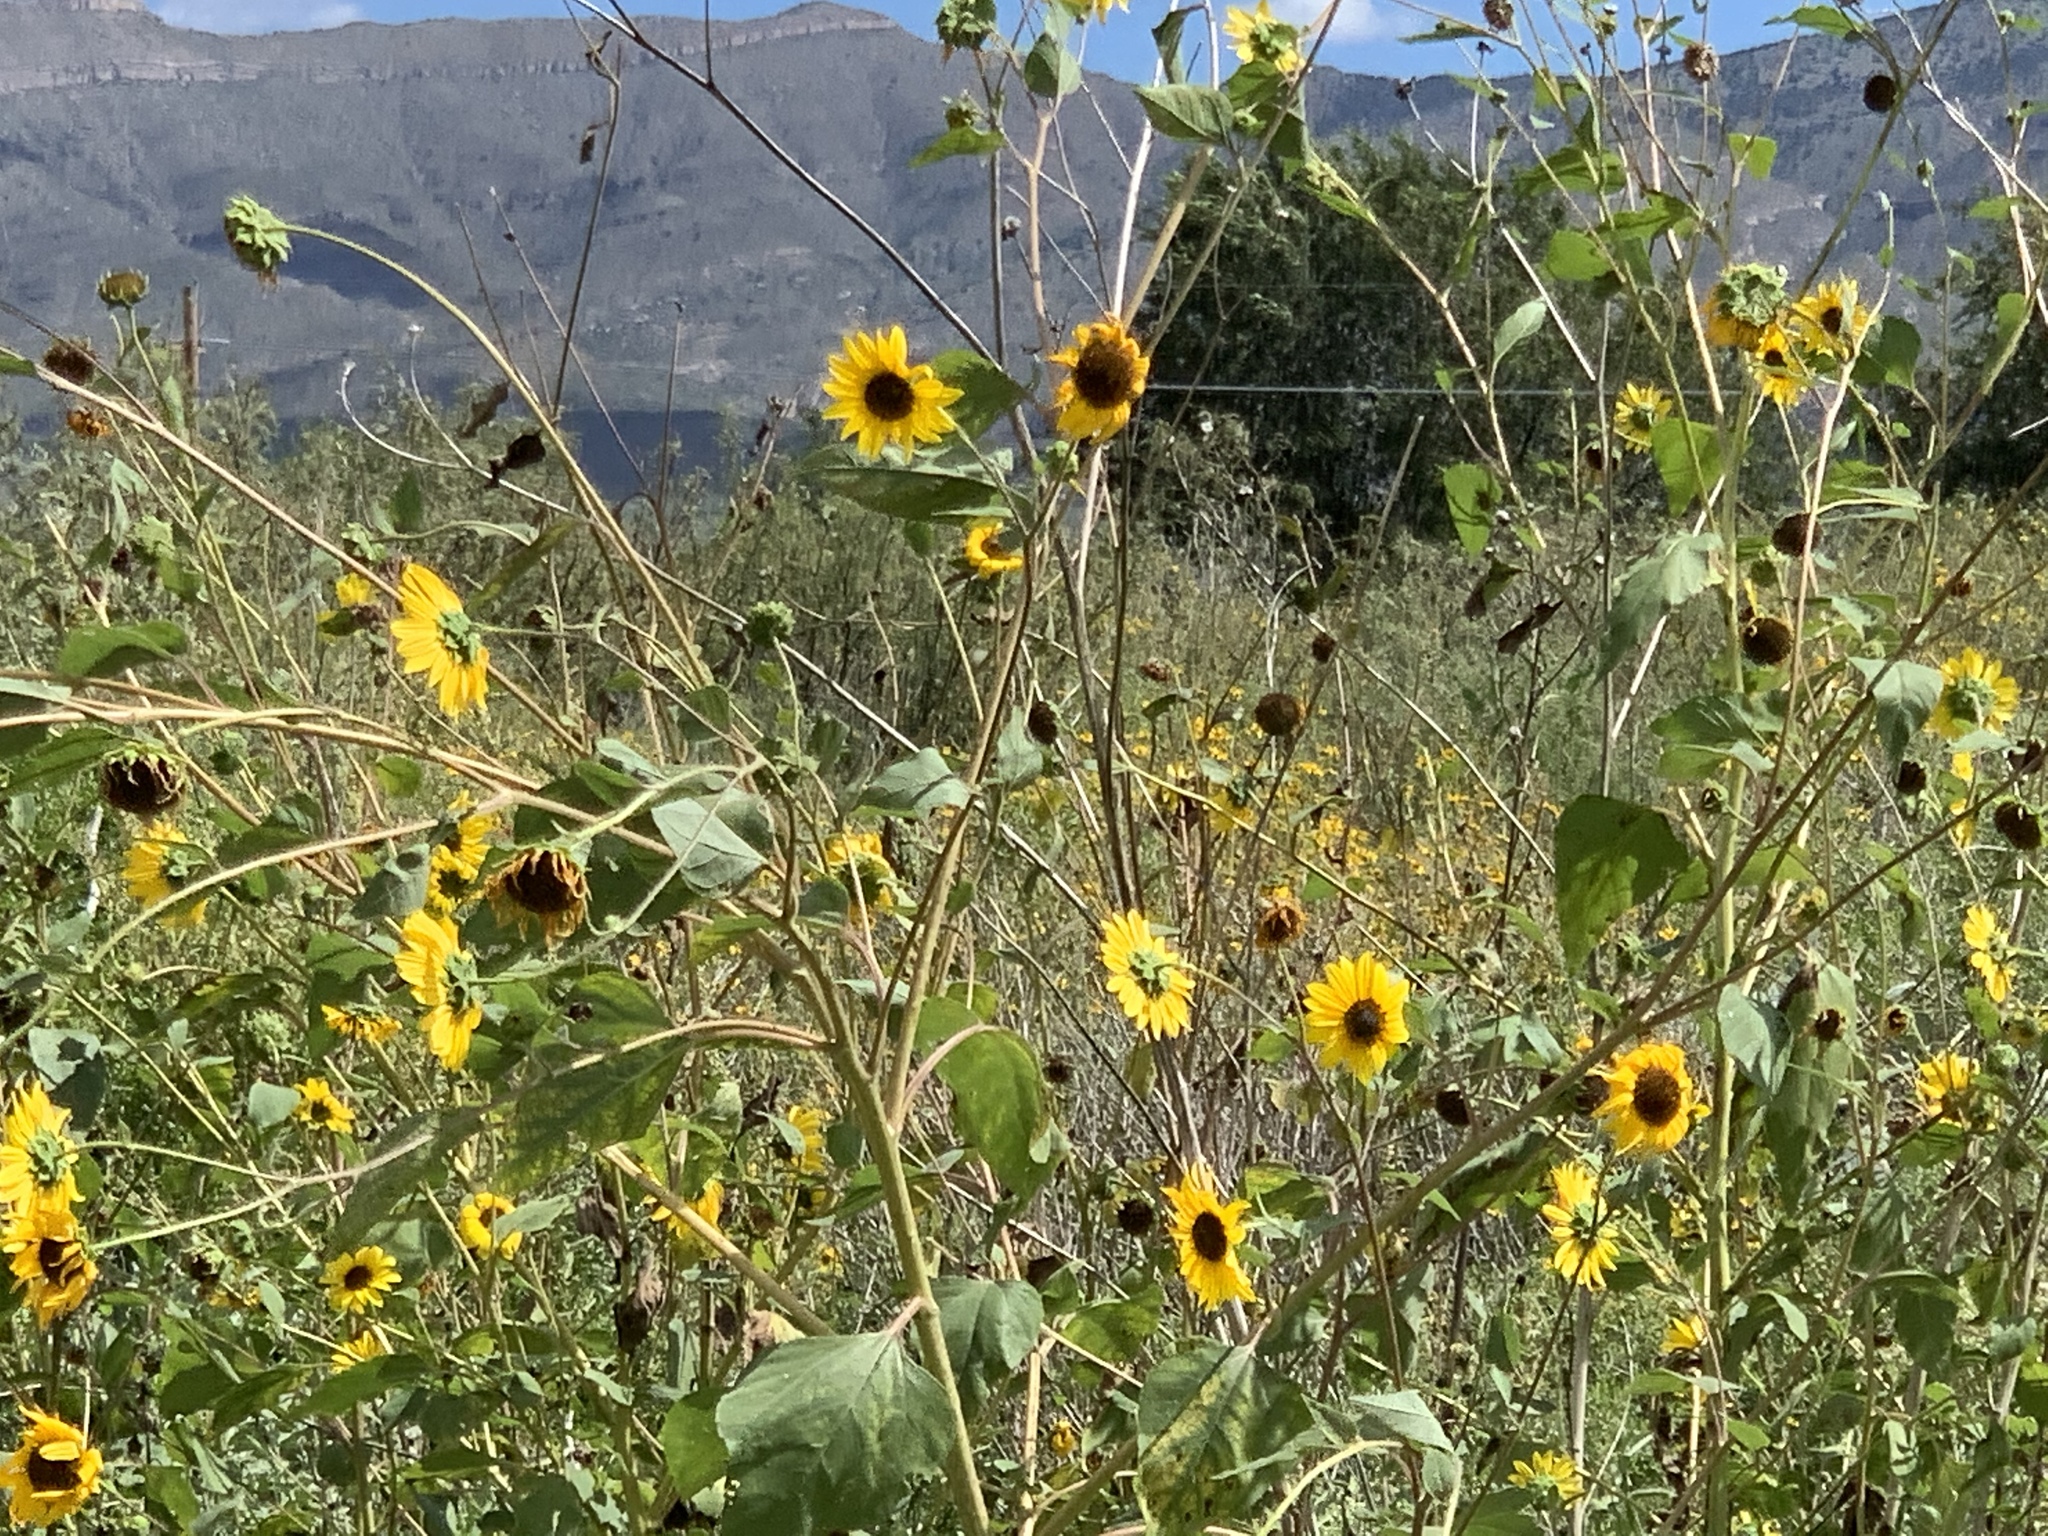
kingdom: Plantae
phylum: Tracheophyta
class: Magnoliopsida
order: Asterales
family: Asteraceae
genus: Helianthus
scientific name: Helianthus annuus
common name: Sunflower
